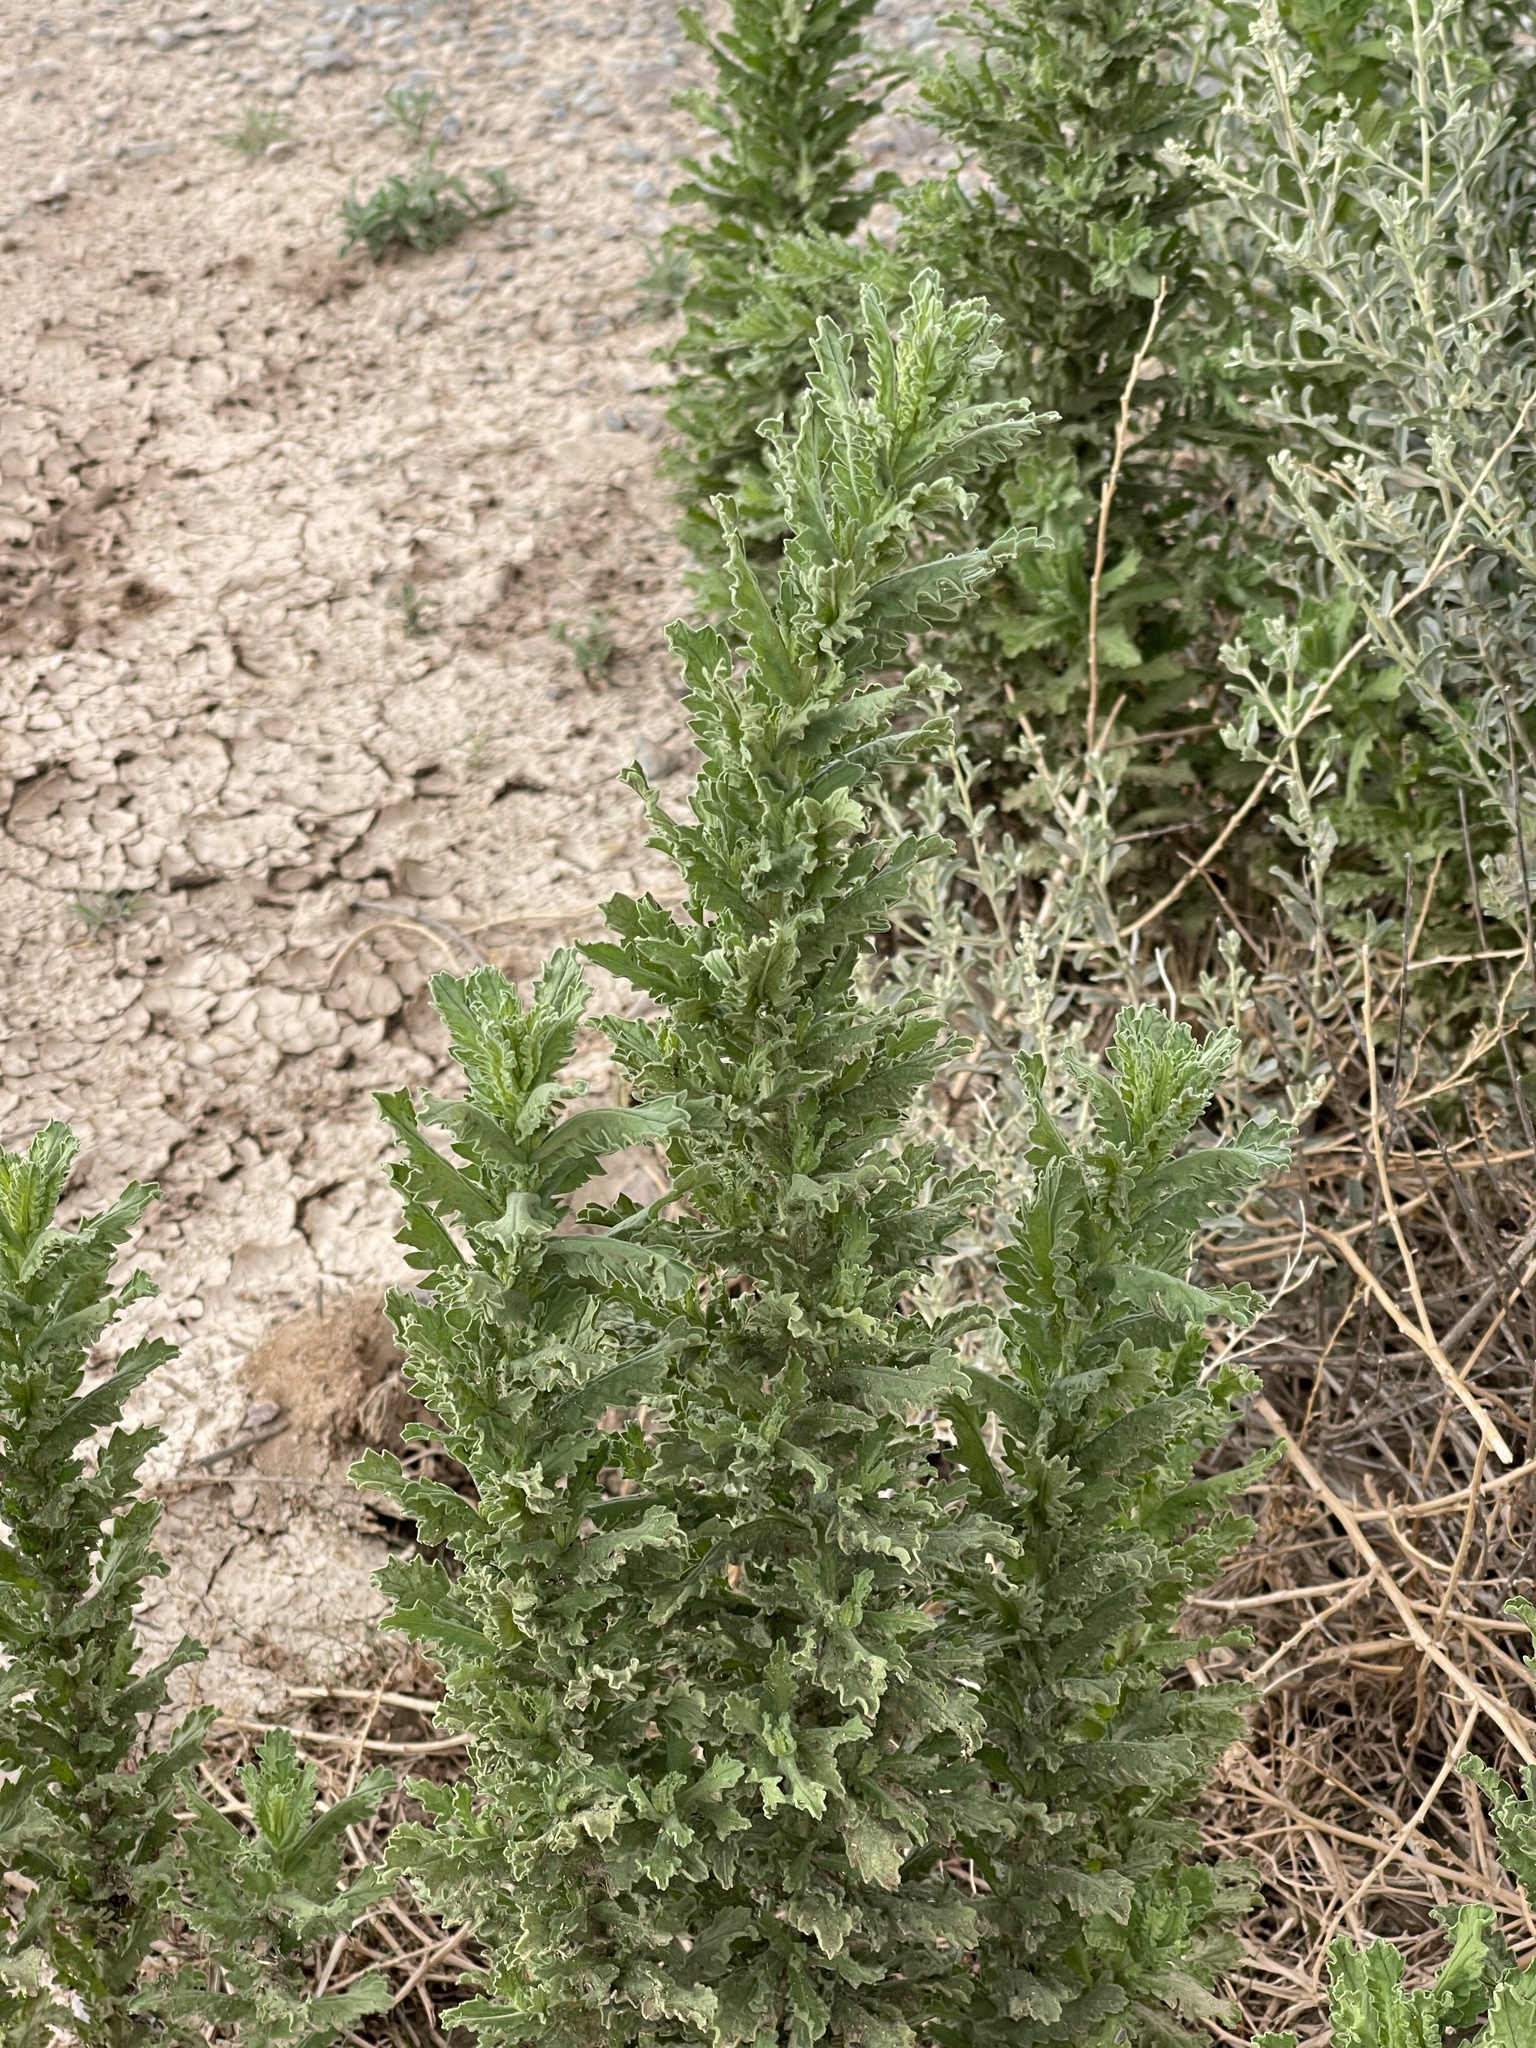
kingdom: Plantae
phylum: Tracheophyta
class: Magnoliopsida
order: Asterales
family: Asteraceae
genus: Laennecia
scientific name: Laennecia coulteri
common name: Coulter's woolwort
